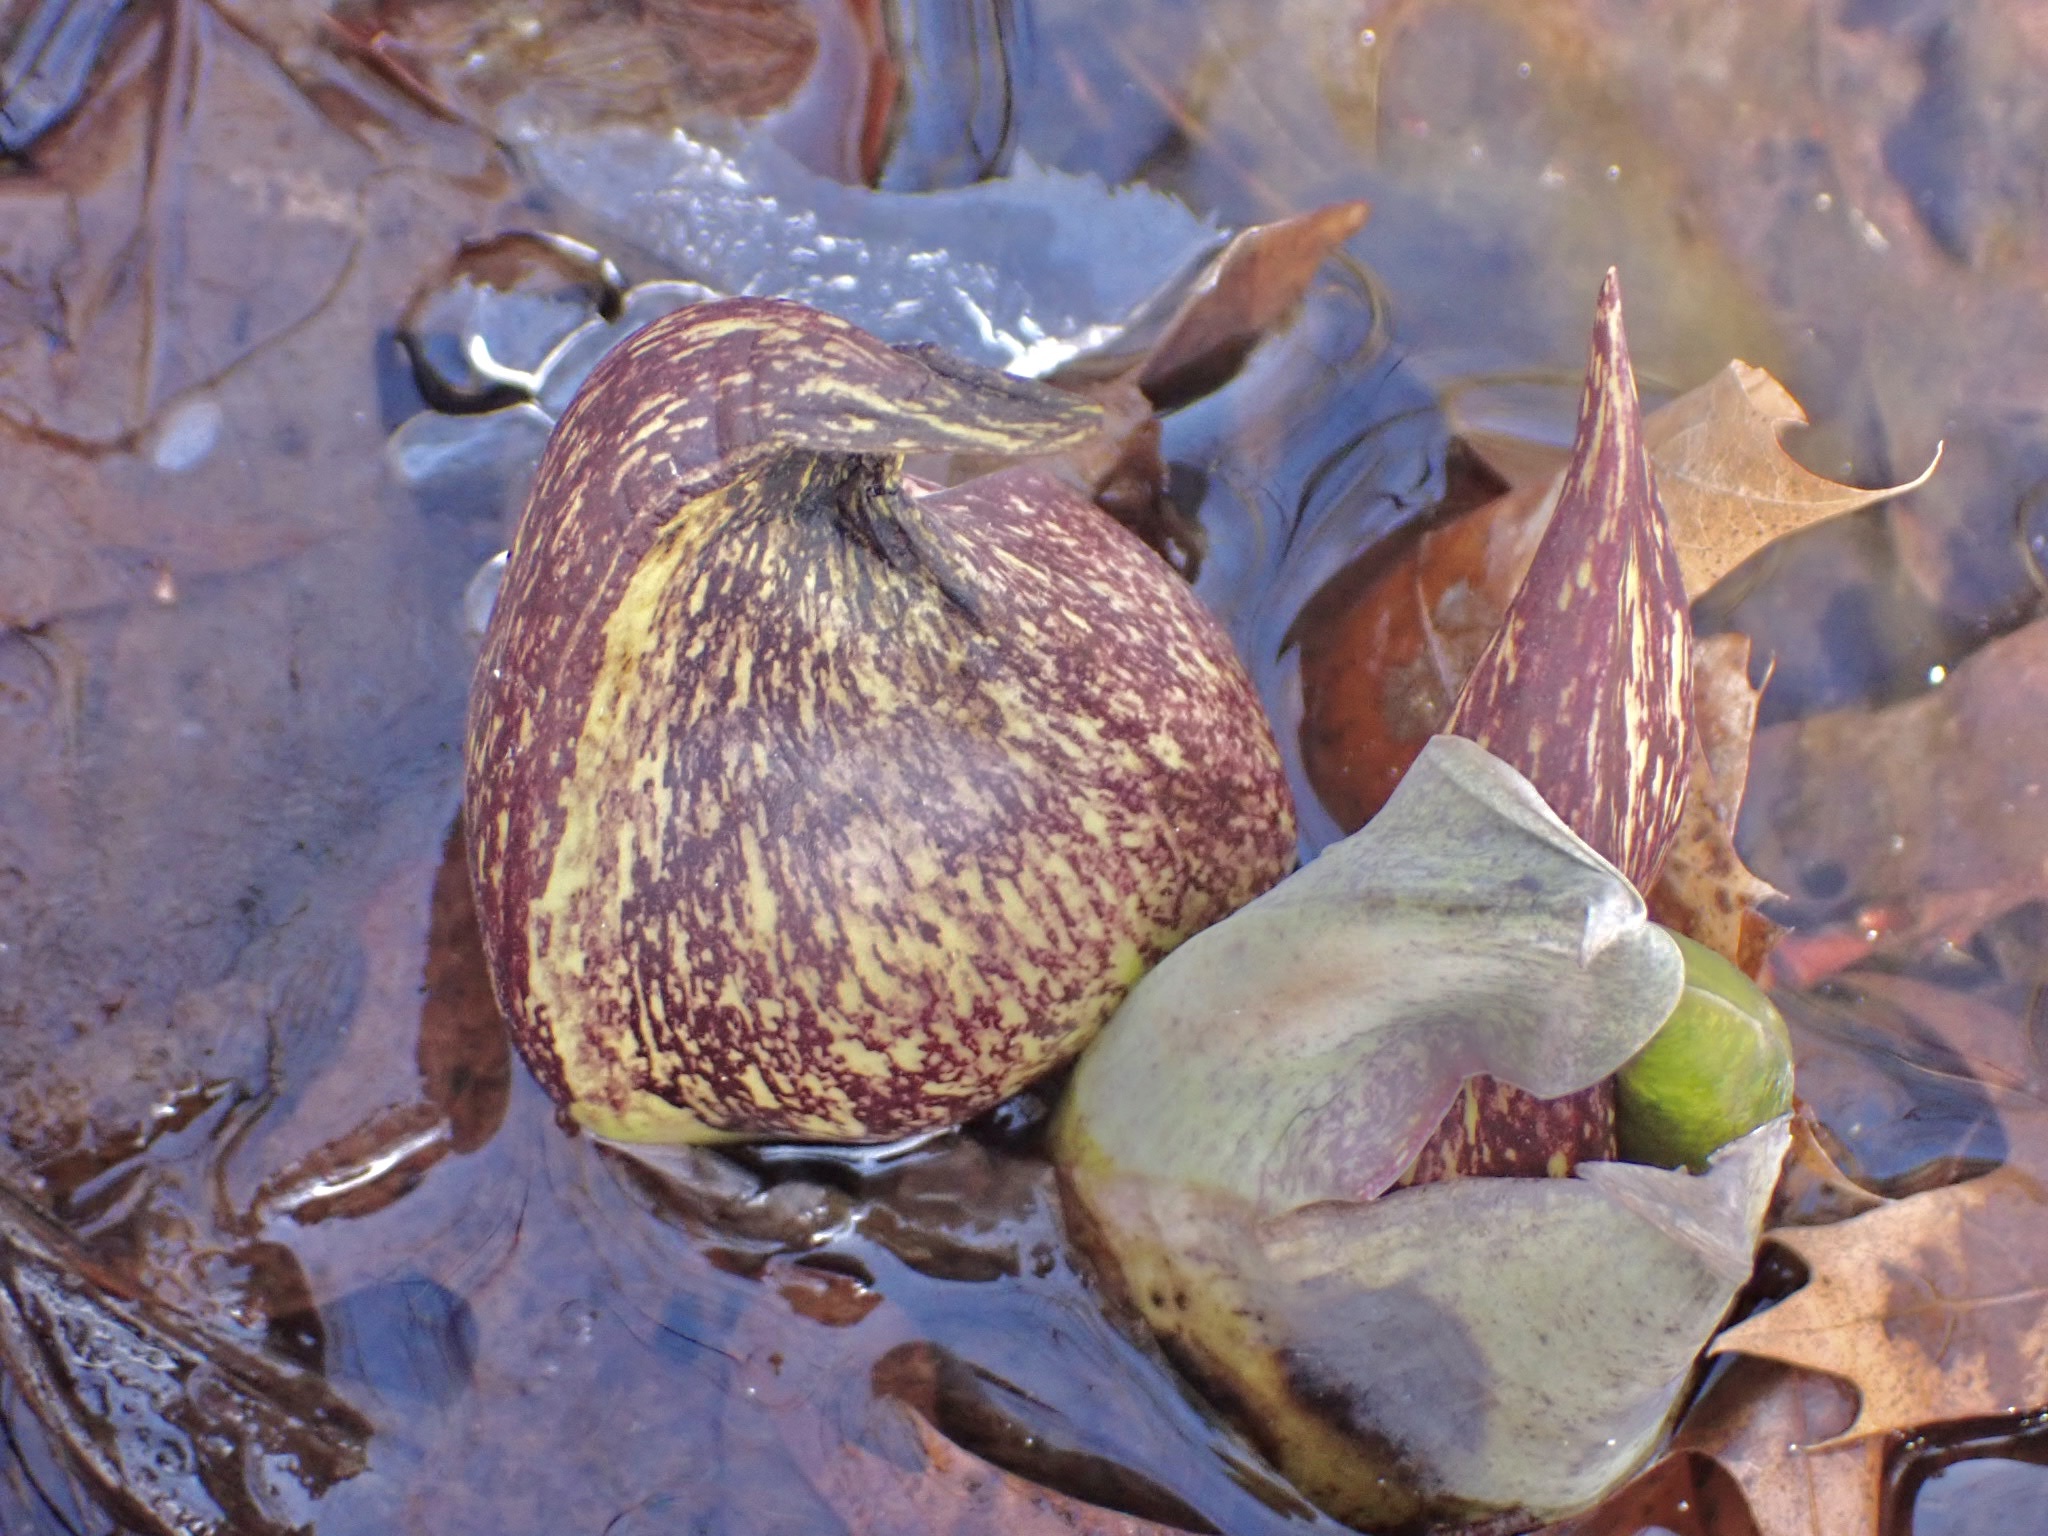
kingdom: Plantae
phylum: Tracheophyta
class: Liliopsida
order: Alismatales
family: Araceae
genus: Symplocarpus
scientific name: Symplocarpus foetidus
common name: Eastern skunk cabbage
